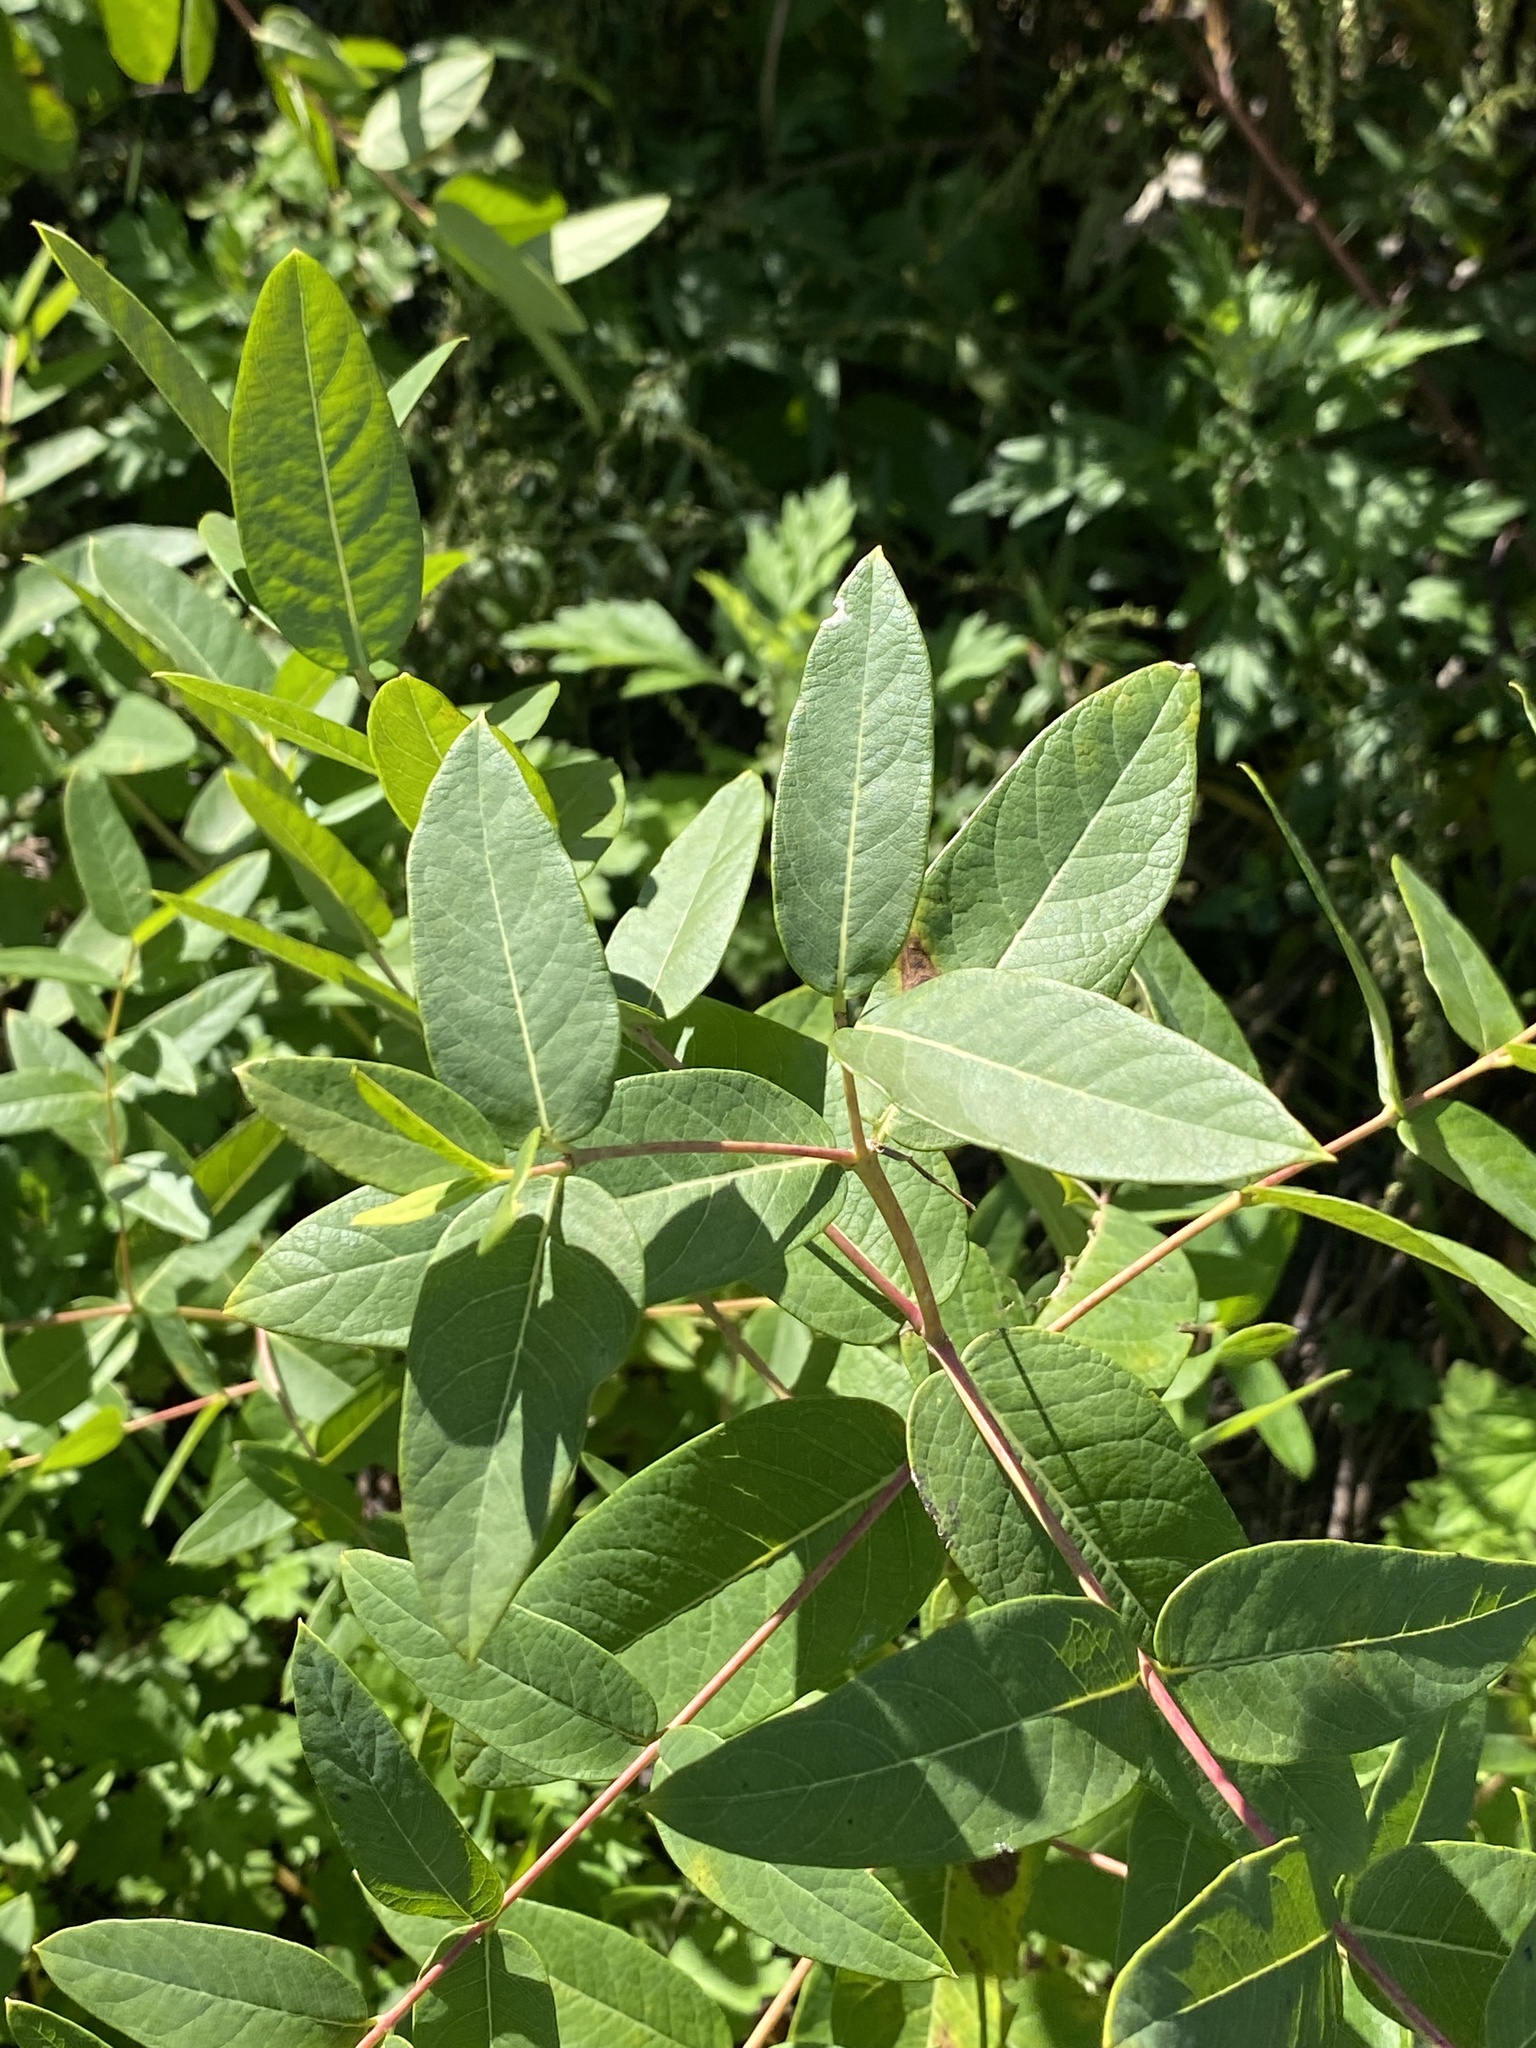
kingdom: Plantae
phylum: Tracheophyta
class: Magnoliopsida
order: Gentianales
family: Apocynaceae
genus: Apocynum
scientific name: Apocynum cannabinum
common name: Hemp dogbane
